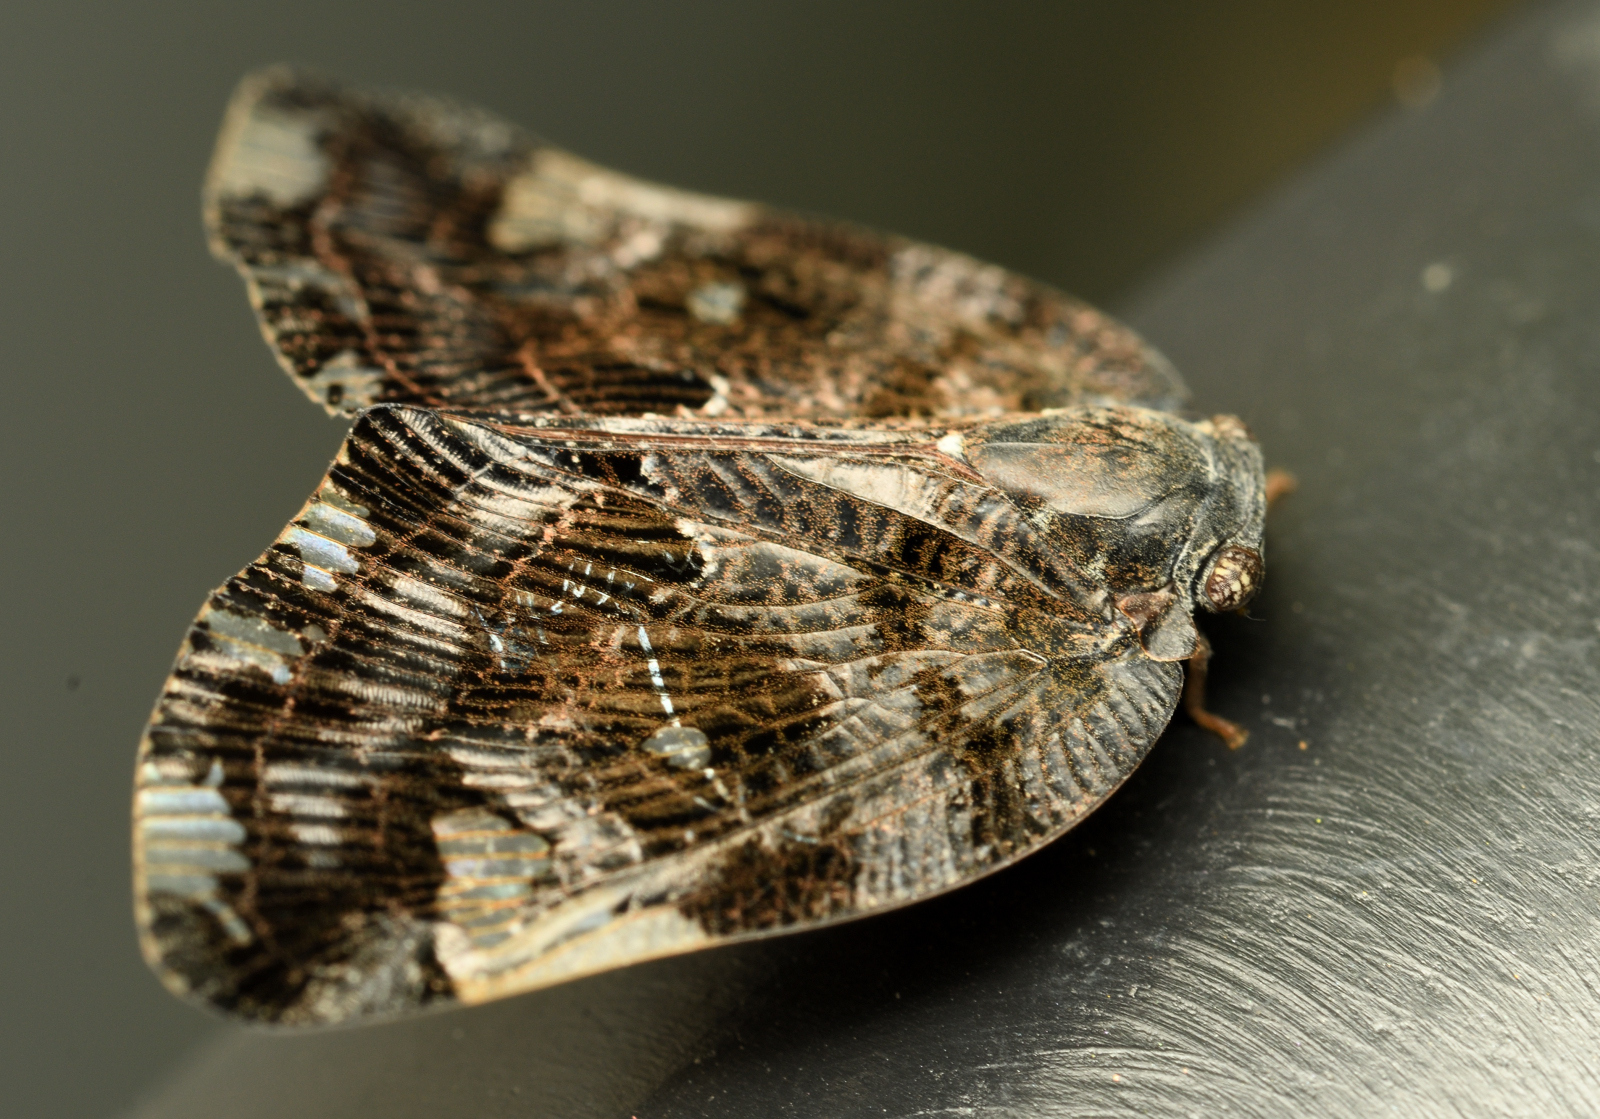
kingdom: Animalia
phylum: Arthropoda
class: Insecta
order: Hemiptera
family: Ricaniidae
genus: Ricania
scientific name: Ricania speculum
